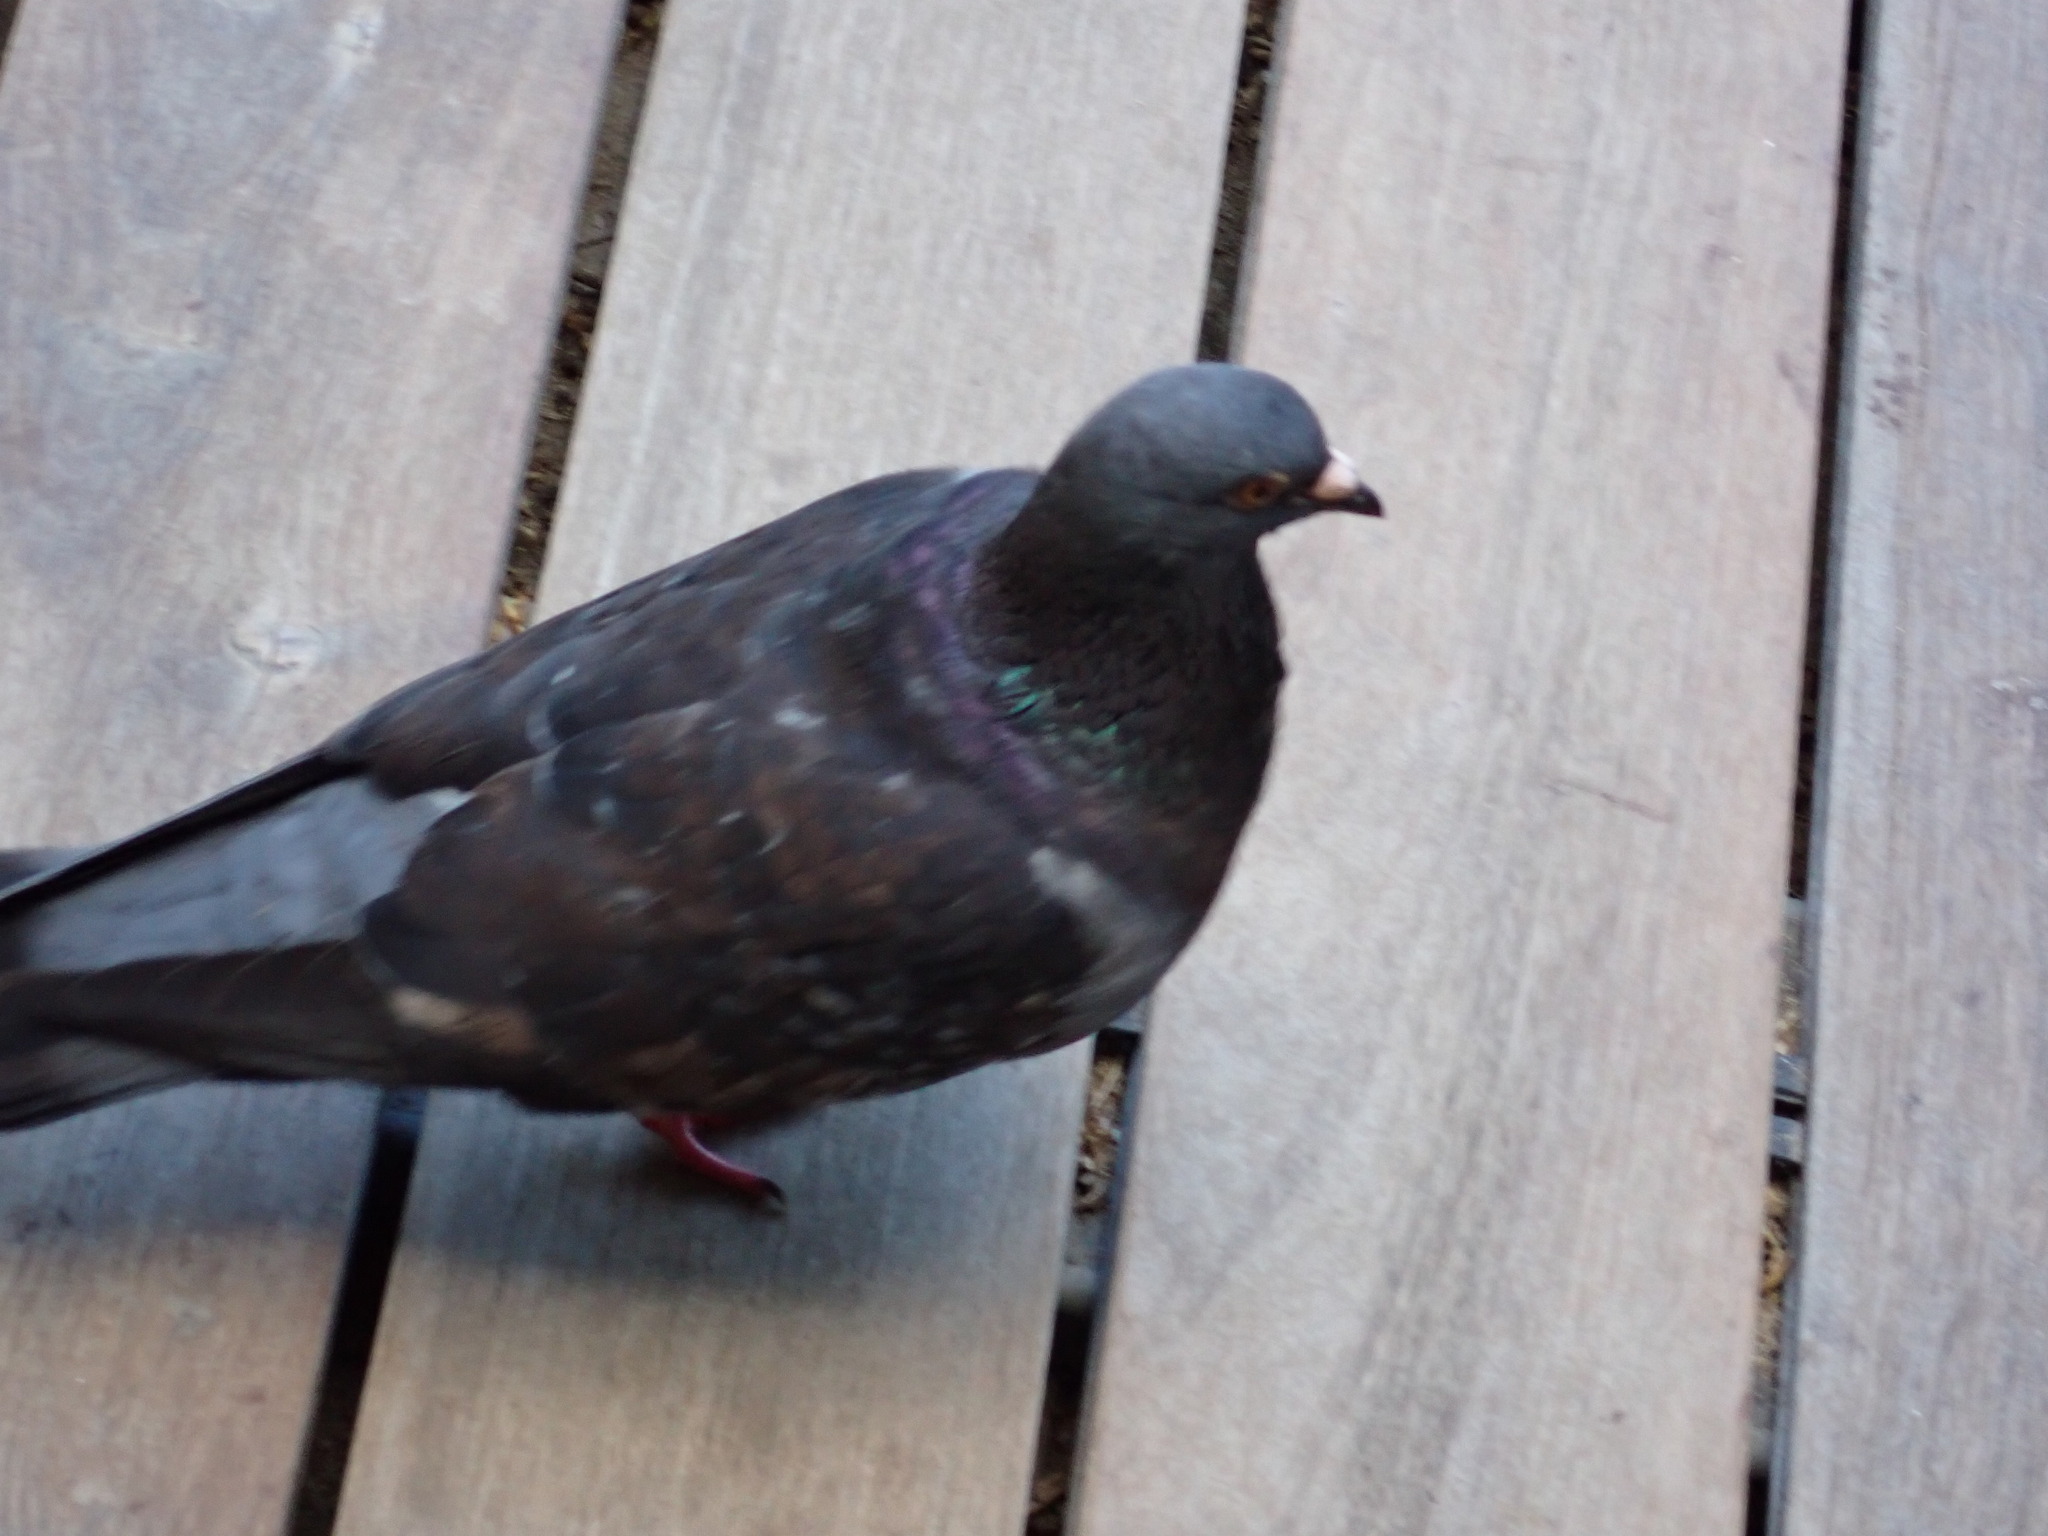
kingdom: Animalia
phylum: Chordata
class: Aves
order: Columbiformes
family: Columbidae
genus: Columba
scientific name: Columba livia
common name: Rock pigeon
